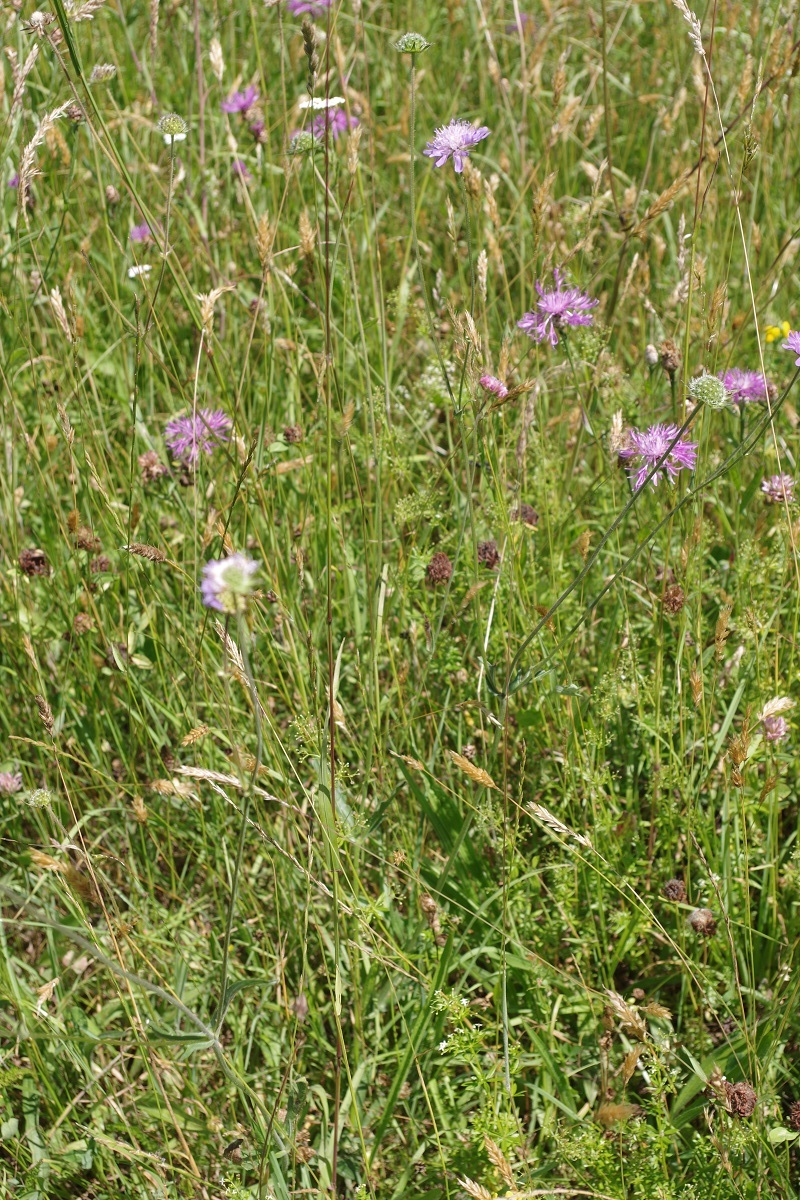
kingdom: Plantae
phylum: Tracheophyta
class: Magnoliopsida
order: Dipsacales
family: Caprifoliaceae
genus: Knautia
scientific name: Knautia arvensis
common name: Field scabiosa
